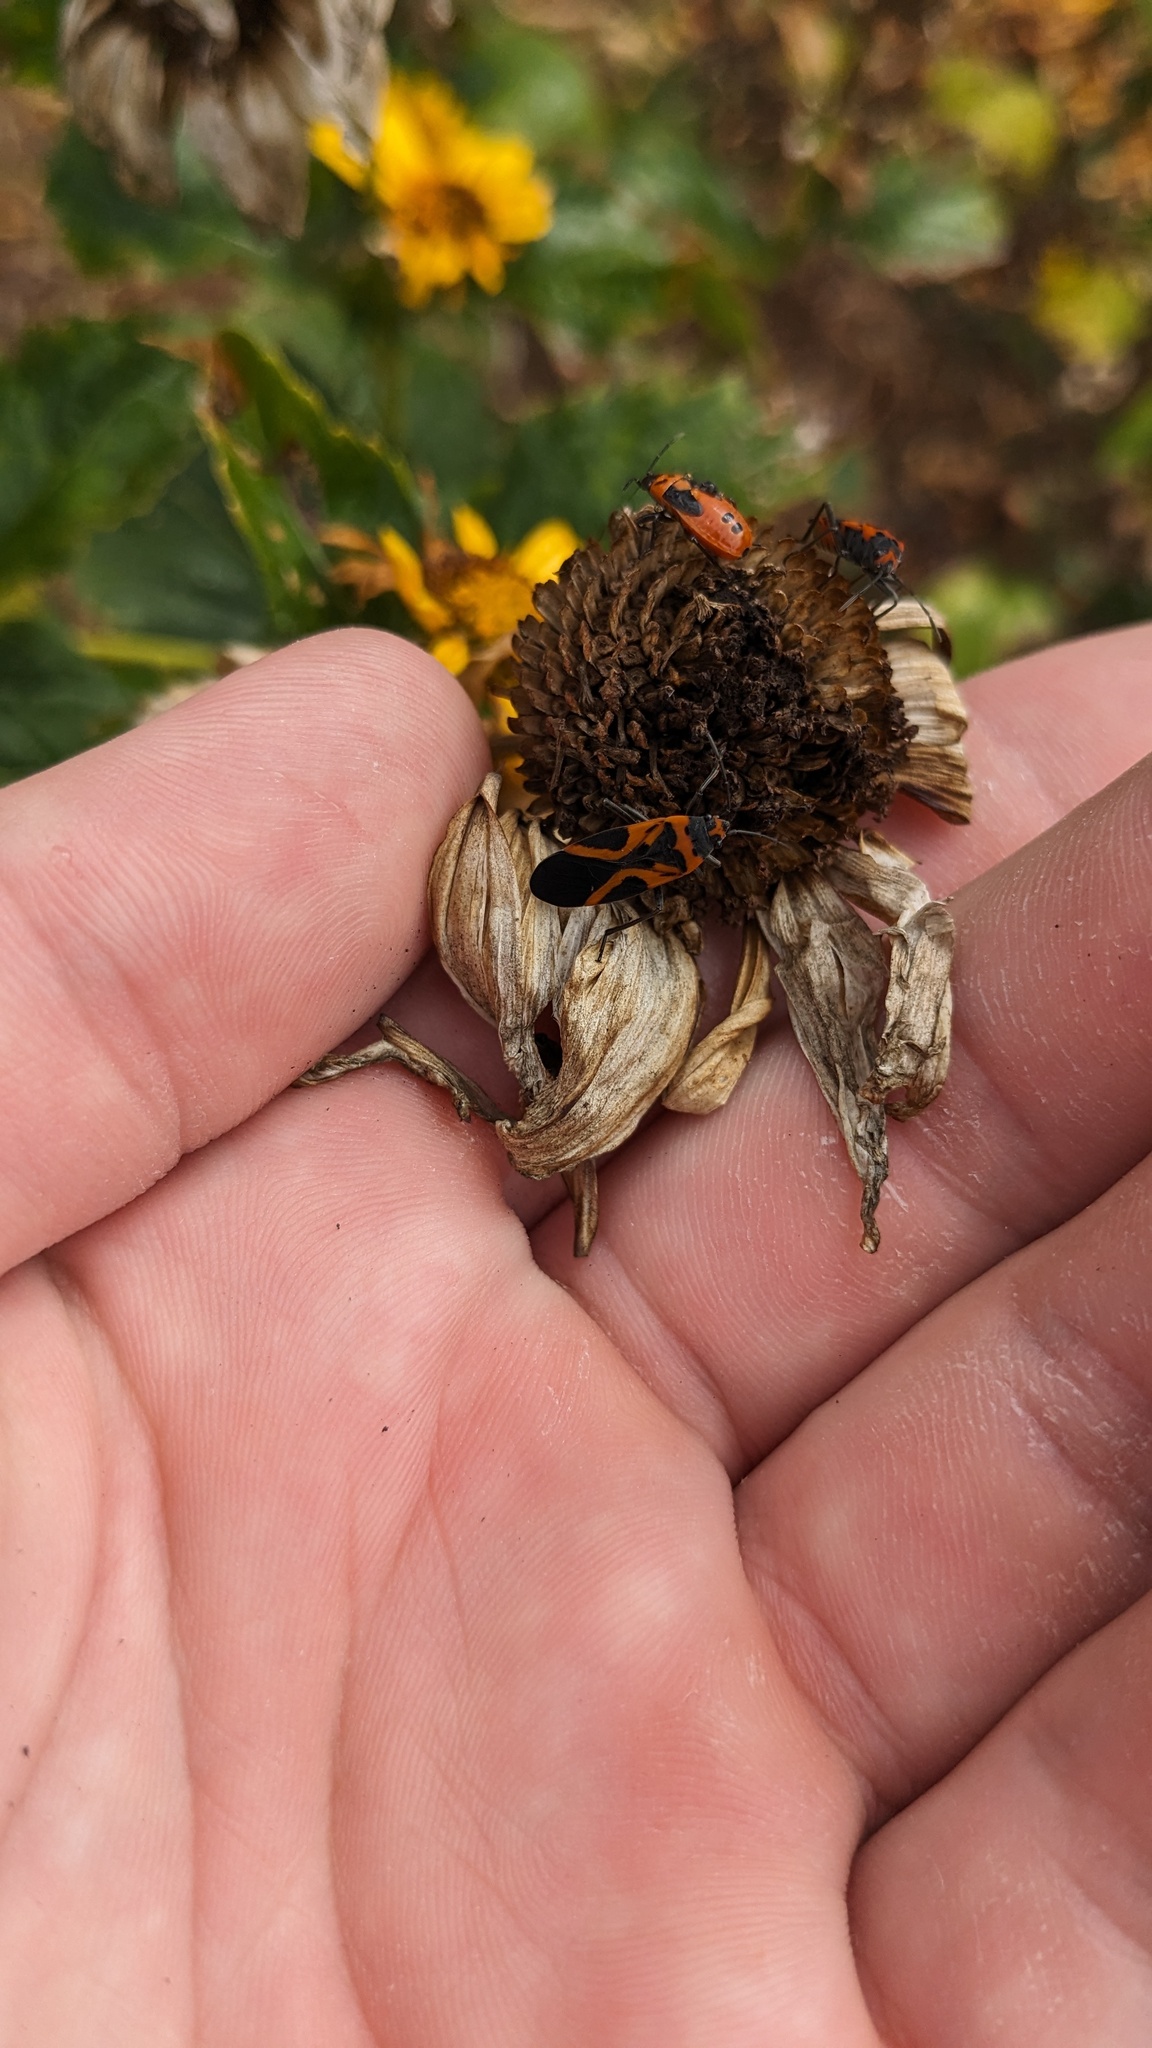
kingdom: Animalia
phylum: Arthropoda
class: Insecta
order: Hemiptera
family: Lygaeidae
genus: Lygaeus
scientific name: Lygaeus turcicus
